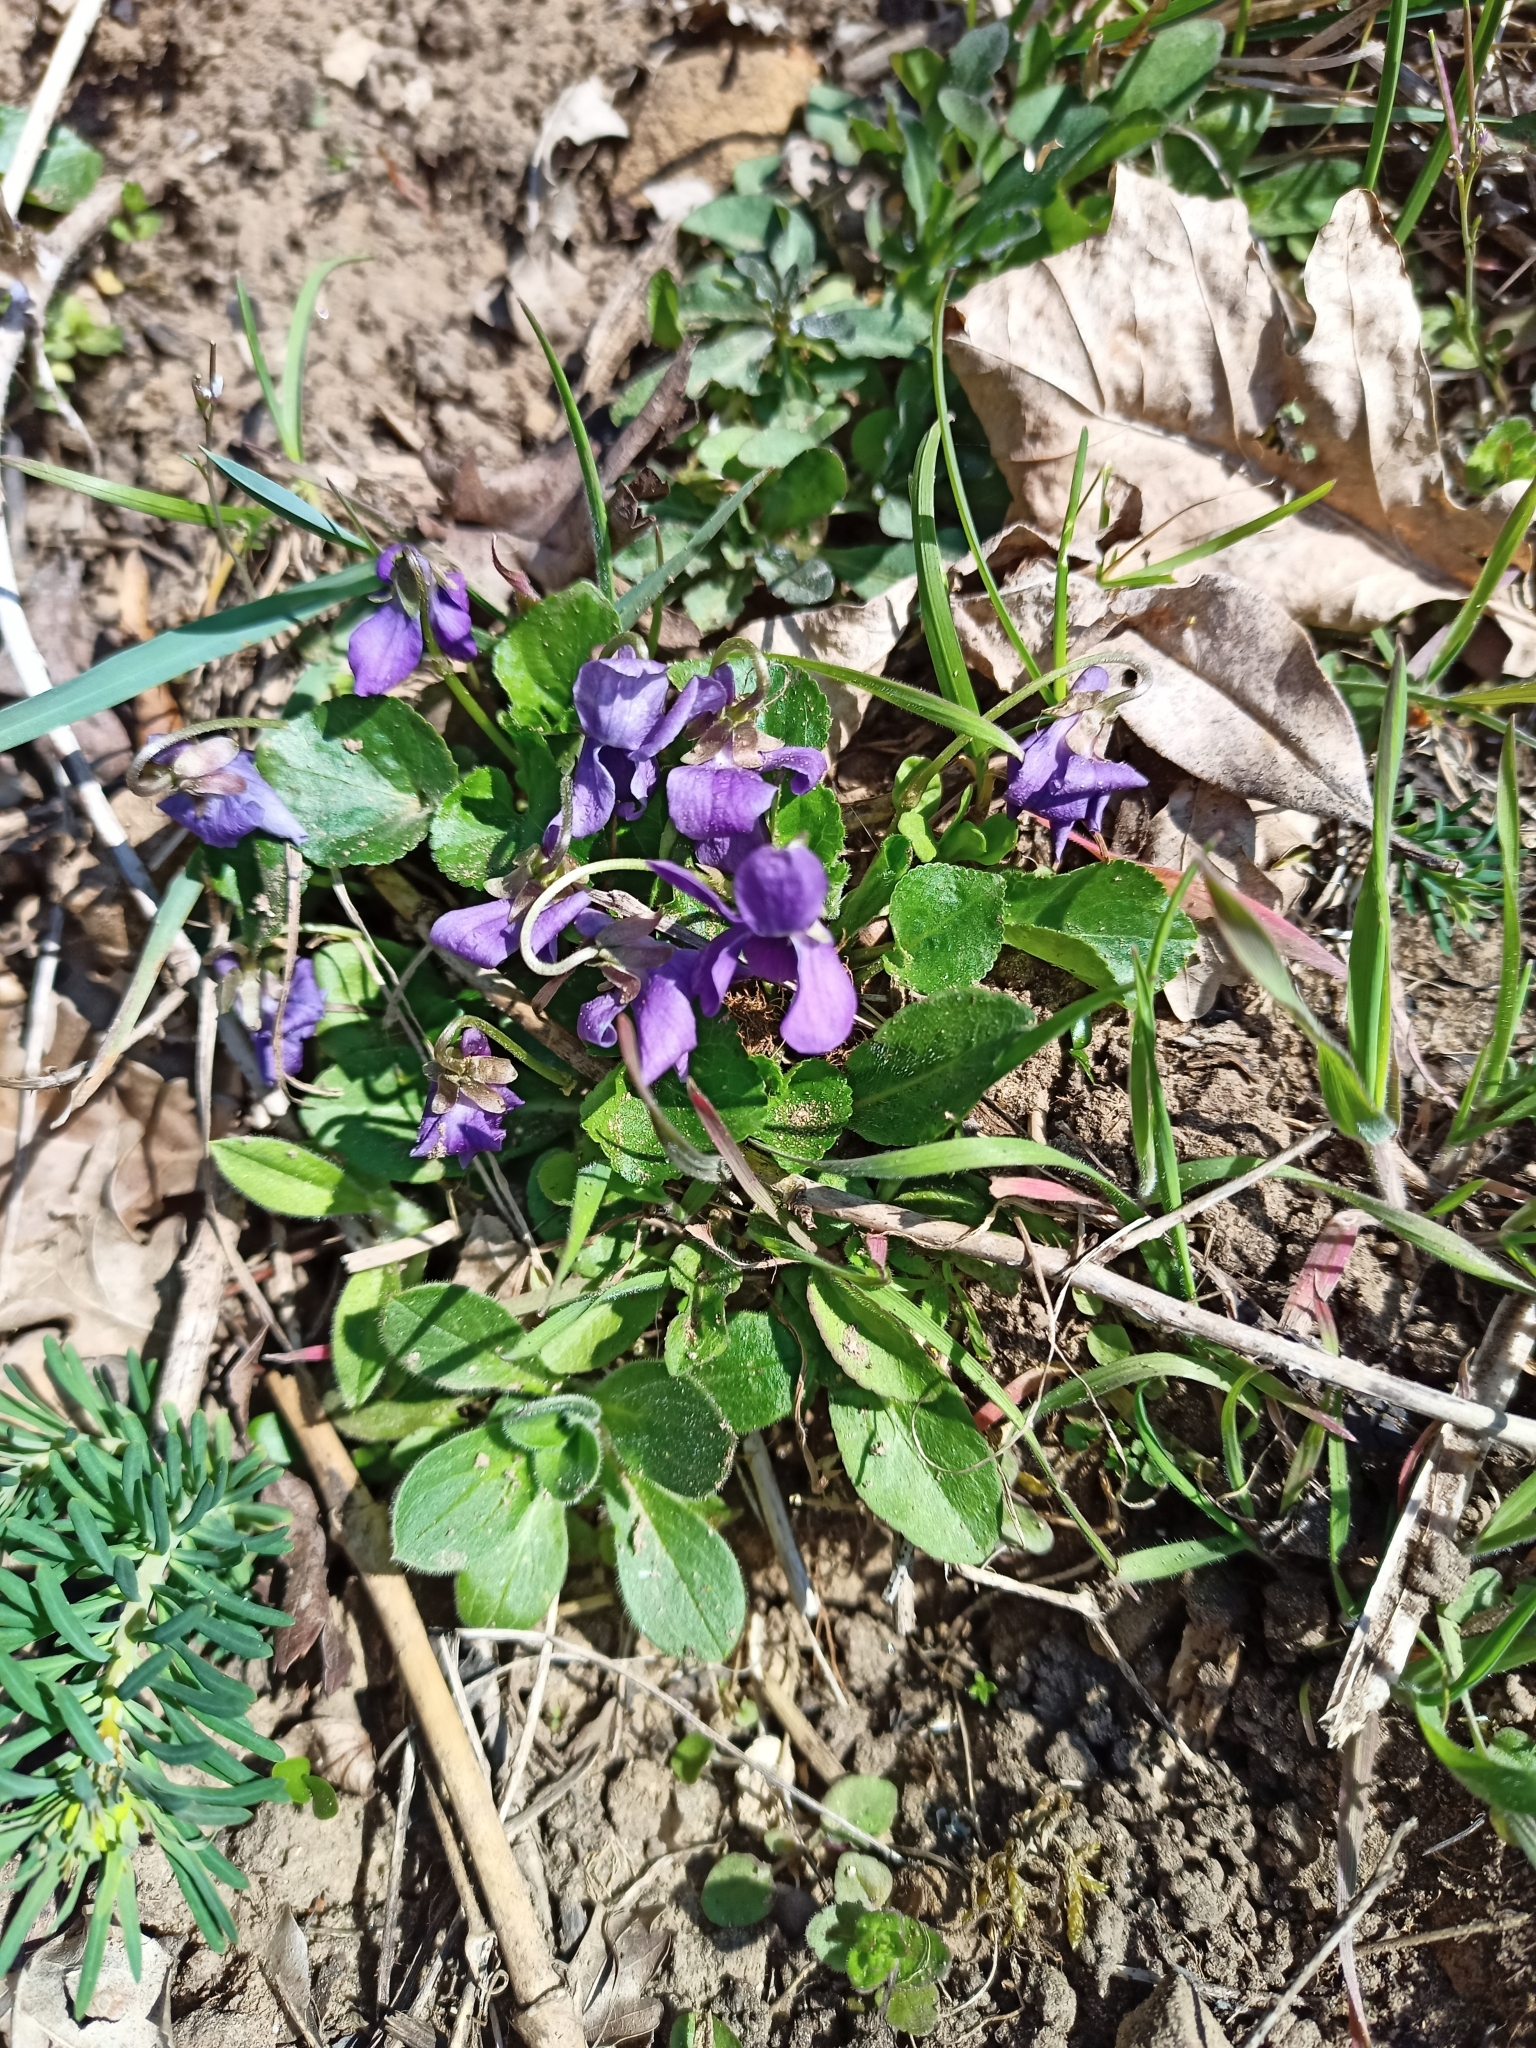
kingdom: Plantae
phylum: Tracheophyta
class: Magnoliopsida
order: Malpighiales
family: Violaceae
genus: Viola
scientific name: Viola odorata
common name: Sweet violet
